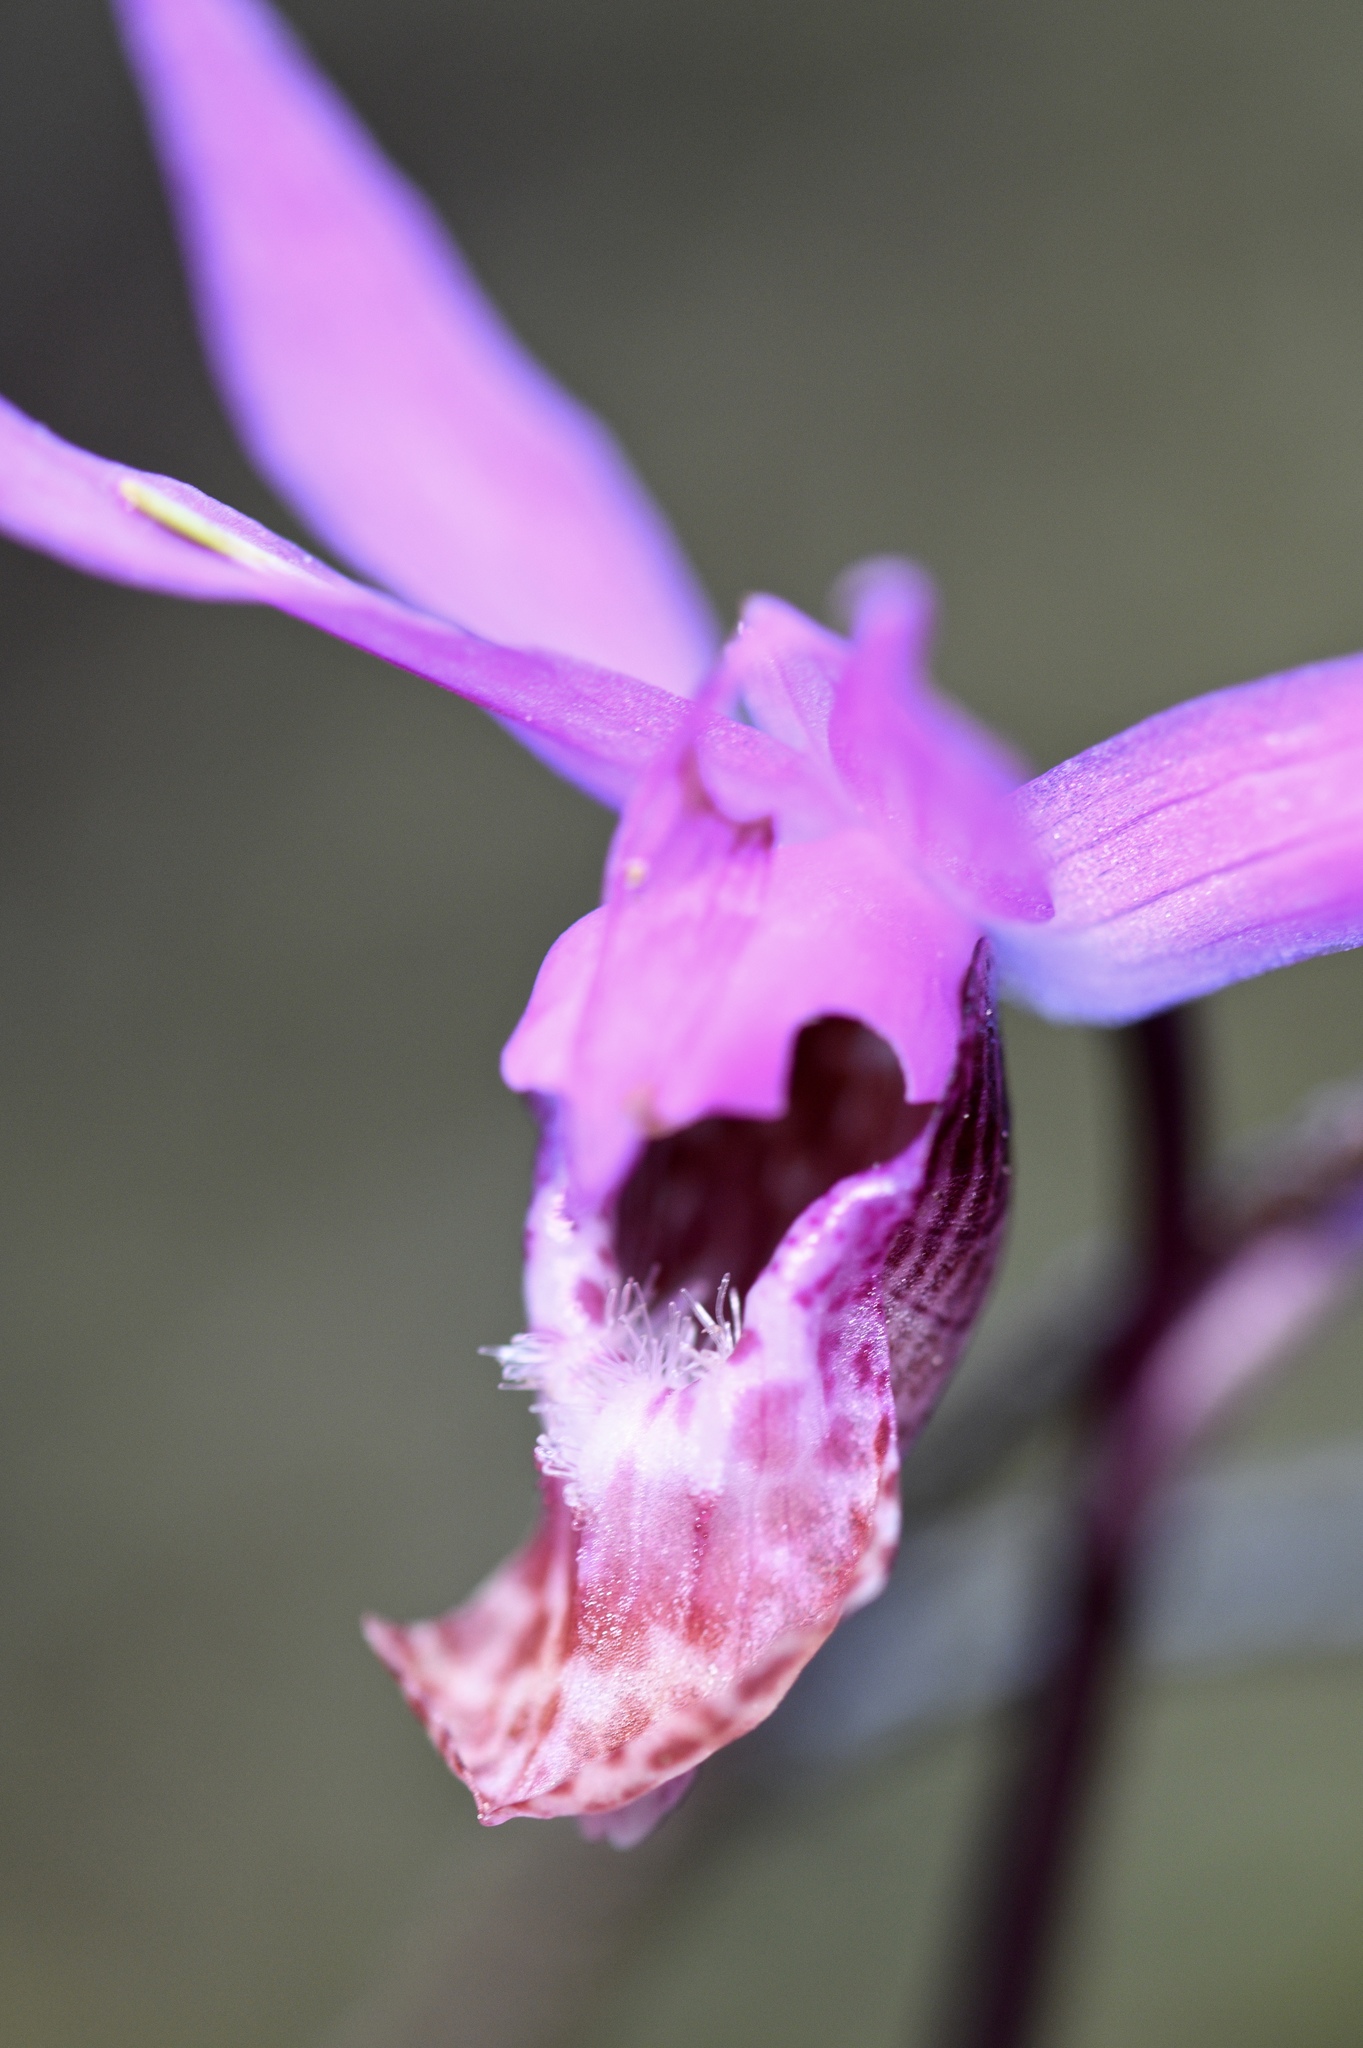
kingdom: Plantae
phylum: Tracheophyta
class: Liliopsida
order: Asparagales
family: Orchidaceae
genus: Calypso
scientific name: Calypso bulbosa
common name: Calypso
